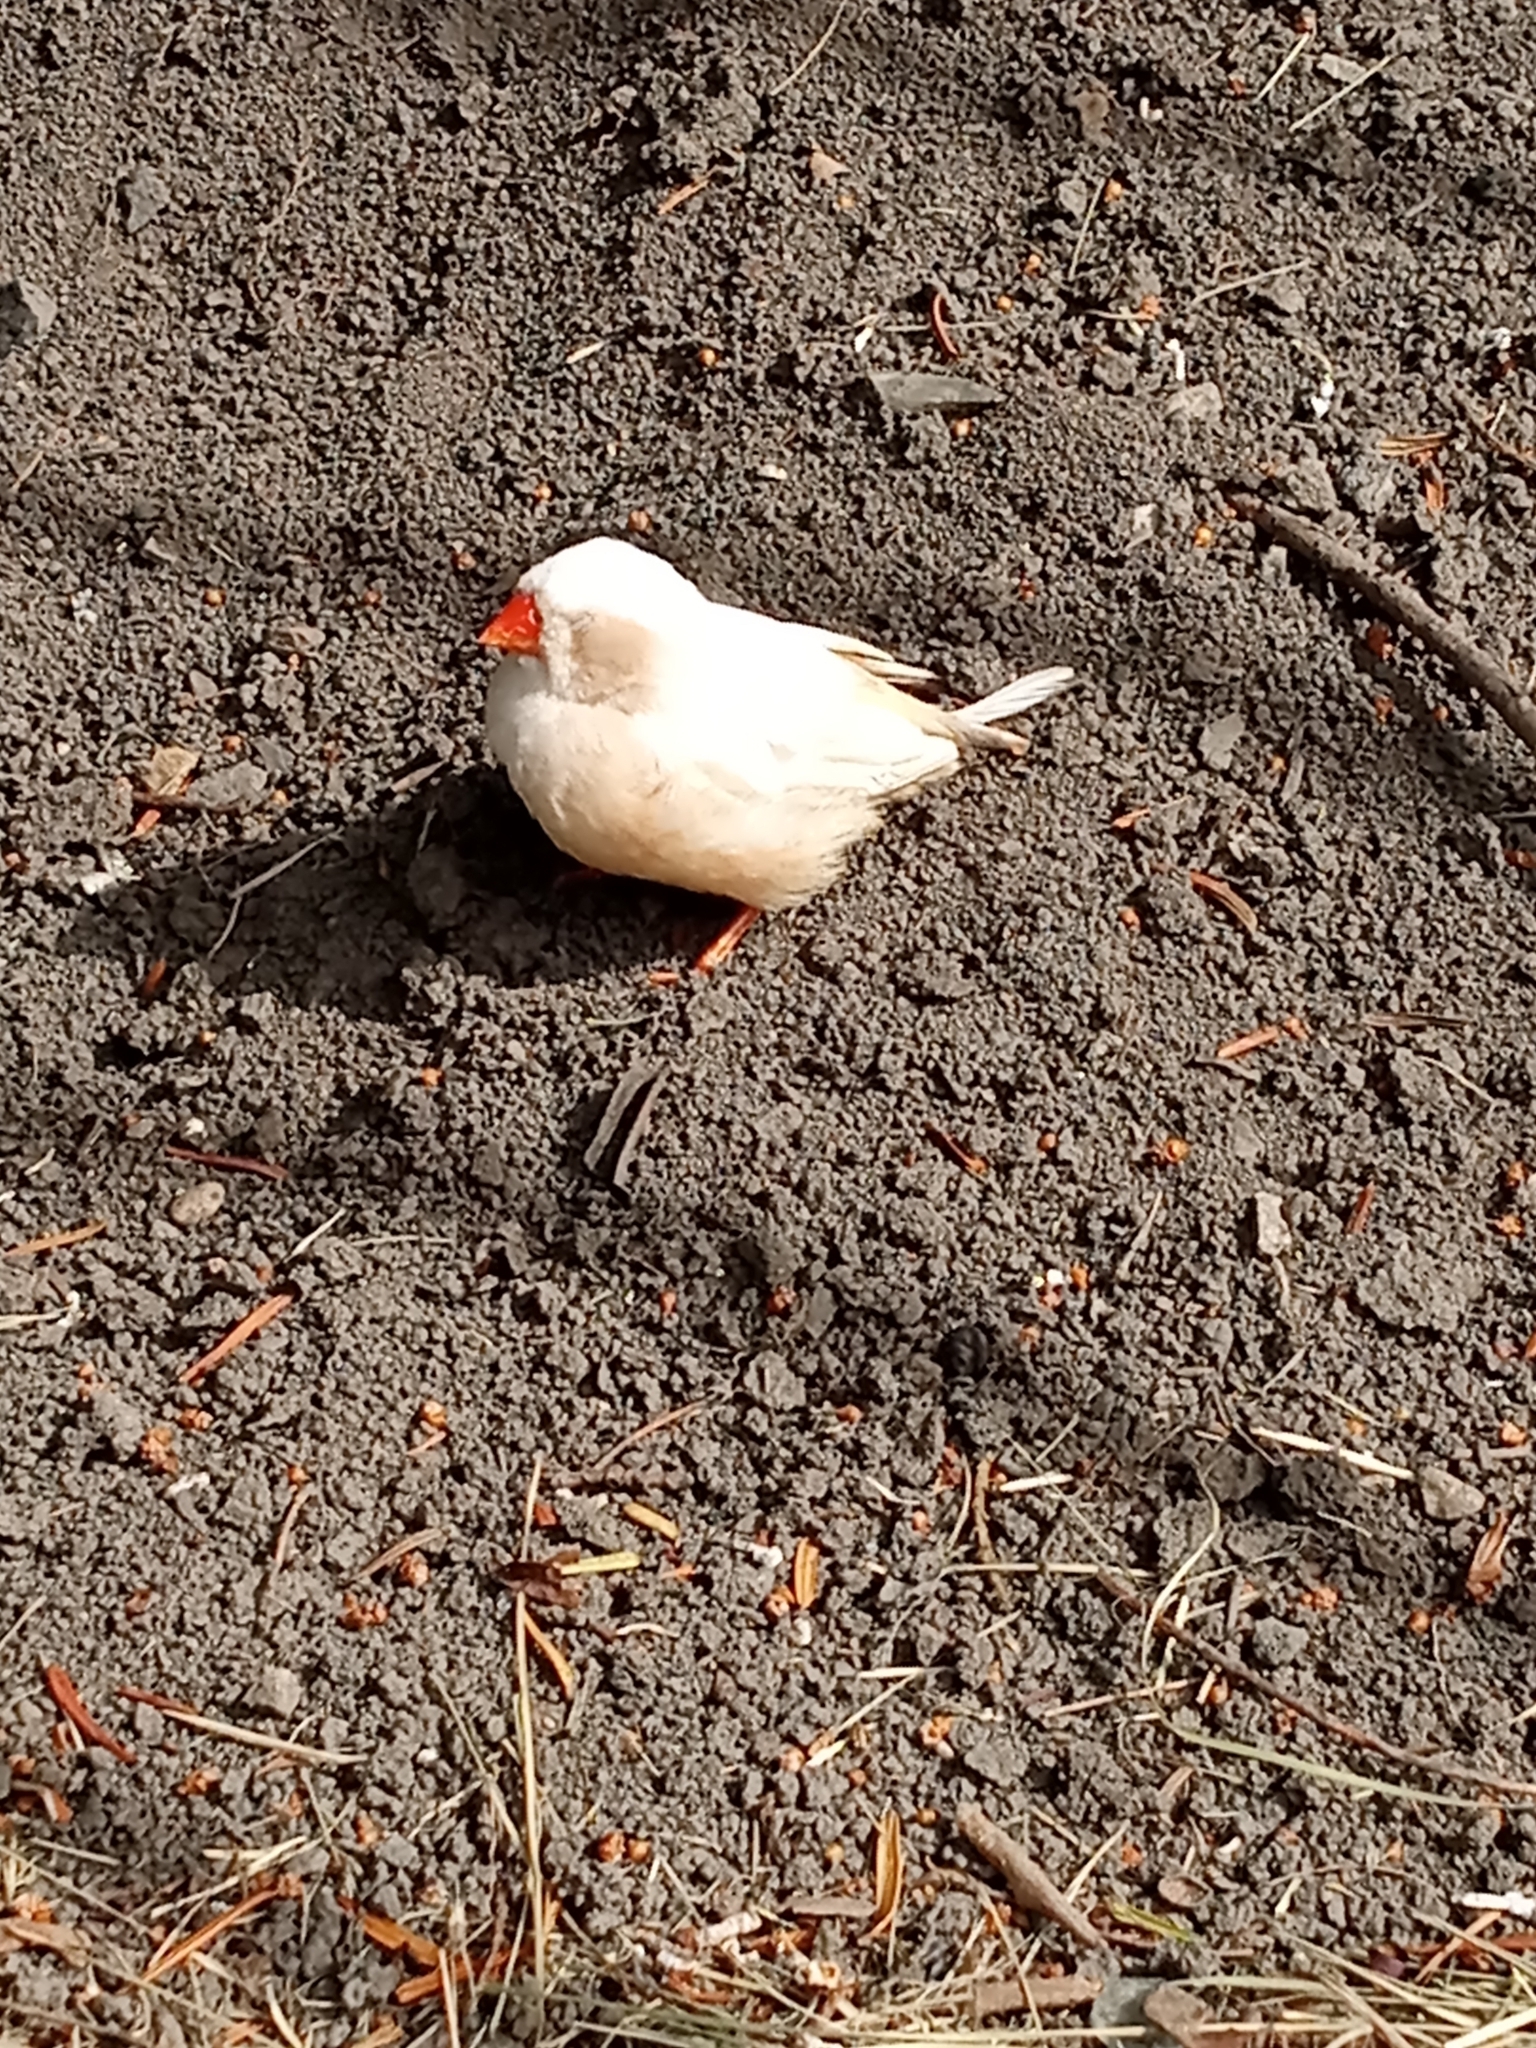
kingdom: Animalia
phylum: Chordata
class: Aves
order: Passeriformes
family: Estrildidae
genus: Taeniopygia
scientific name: Taeniopygia guttata
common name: Zebra finch
